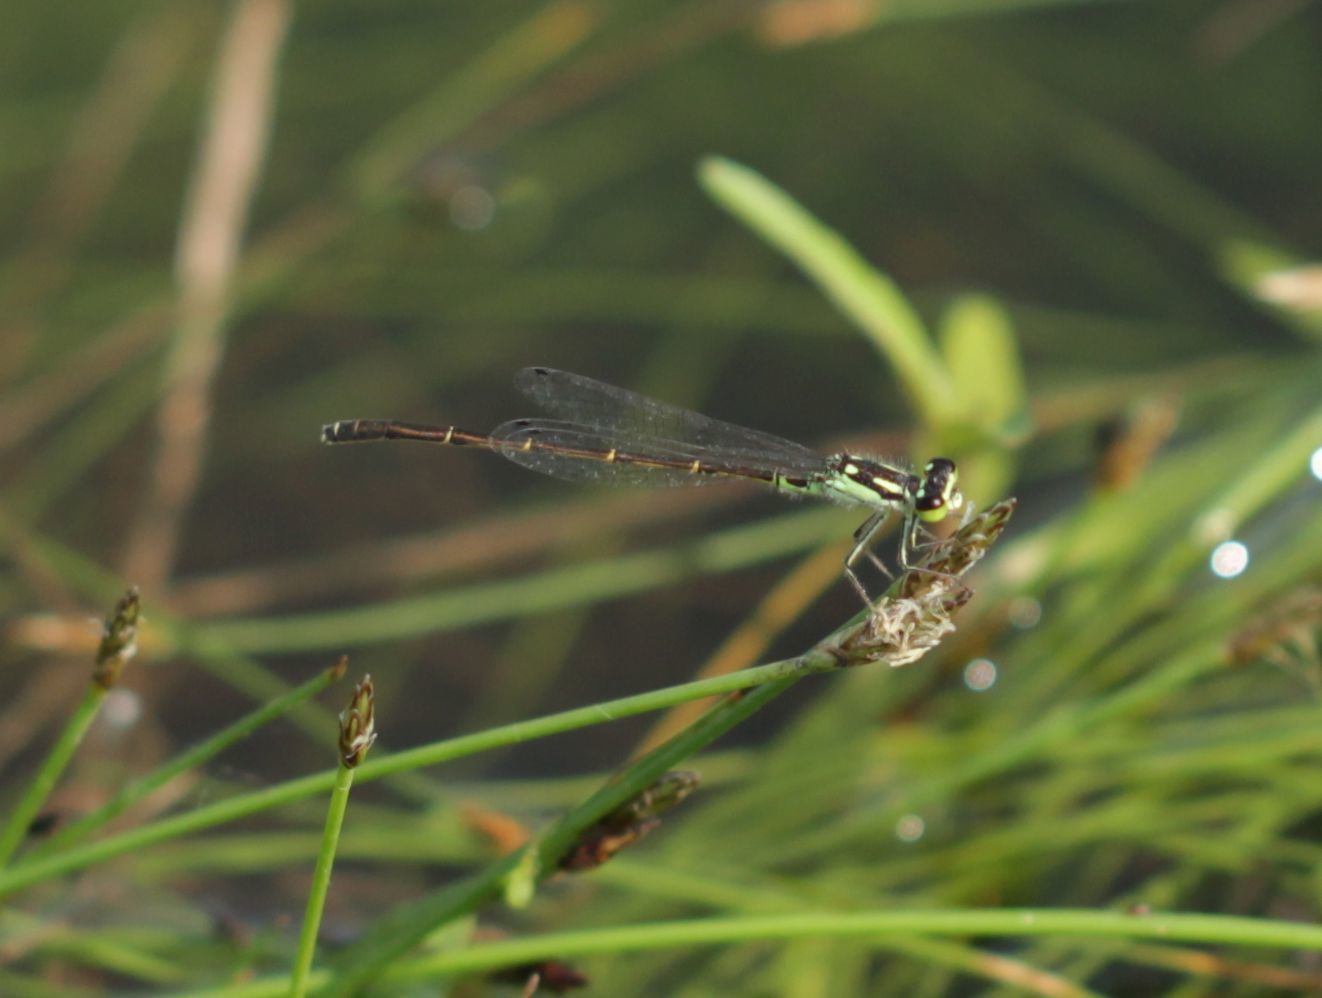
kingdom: Animalia
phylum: Arthropoda
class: Insecta
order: Odonata
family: Coenagrionidae
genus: Ischnura
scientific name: Ischnura posita
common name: Fragile forktail
